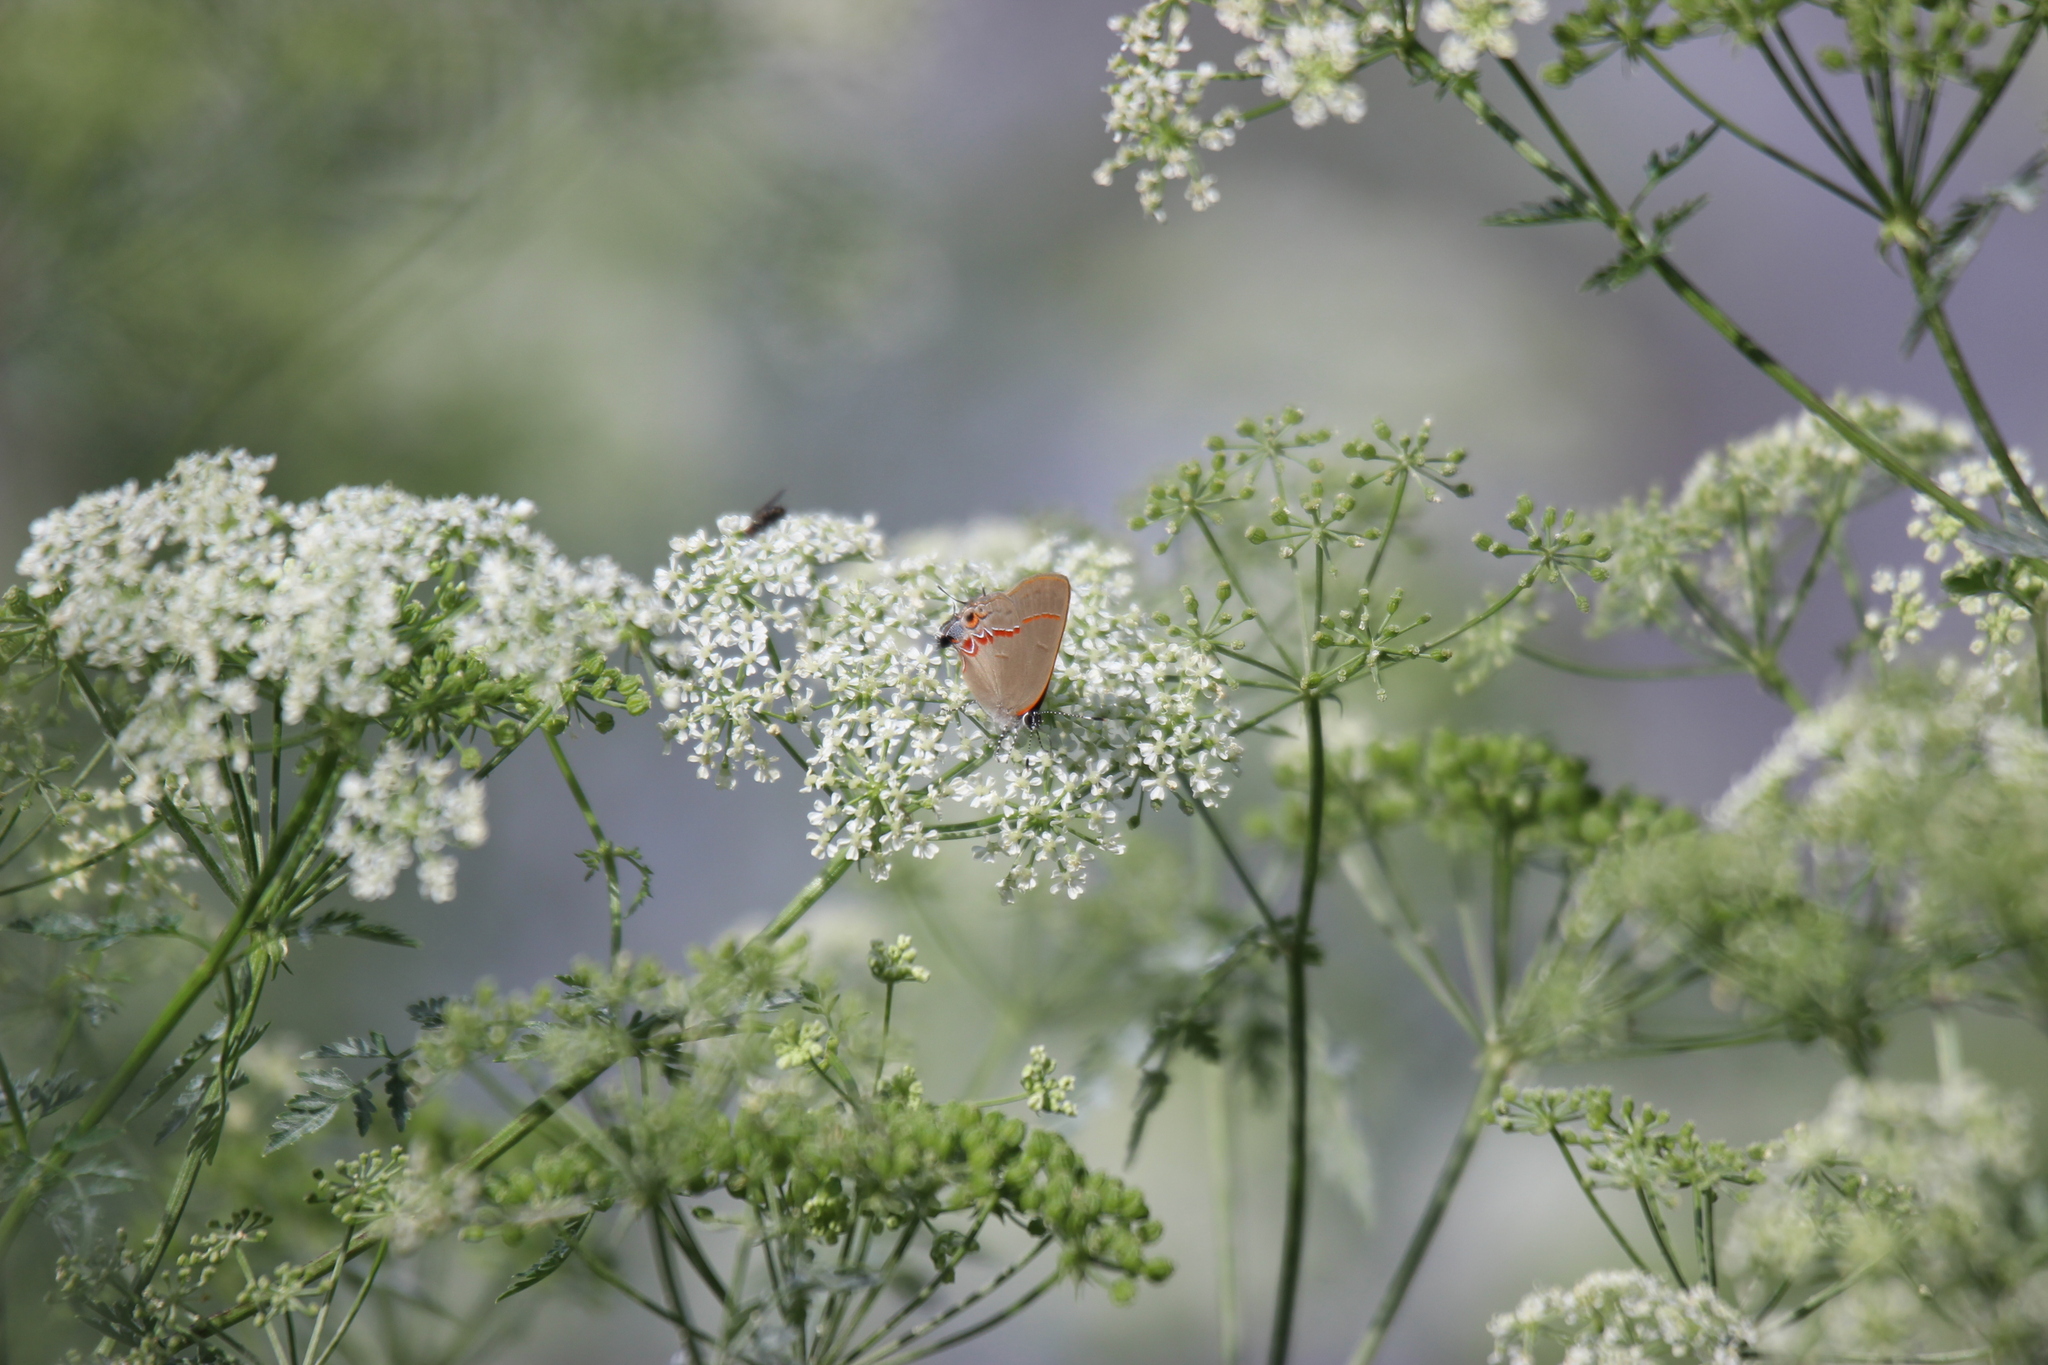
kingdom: Animalia
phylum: Arthropoda
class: Insecta
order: Lepidoptera
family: Lycaenidae
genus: Calycopis
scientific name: Calycopis cecrops
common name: Red-banded hairstreak
